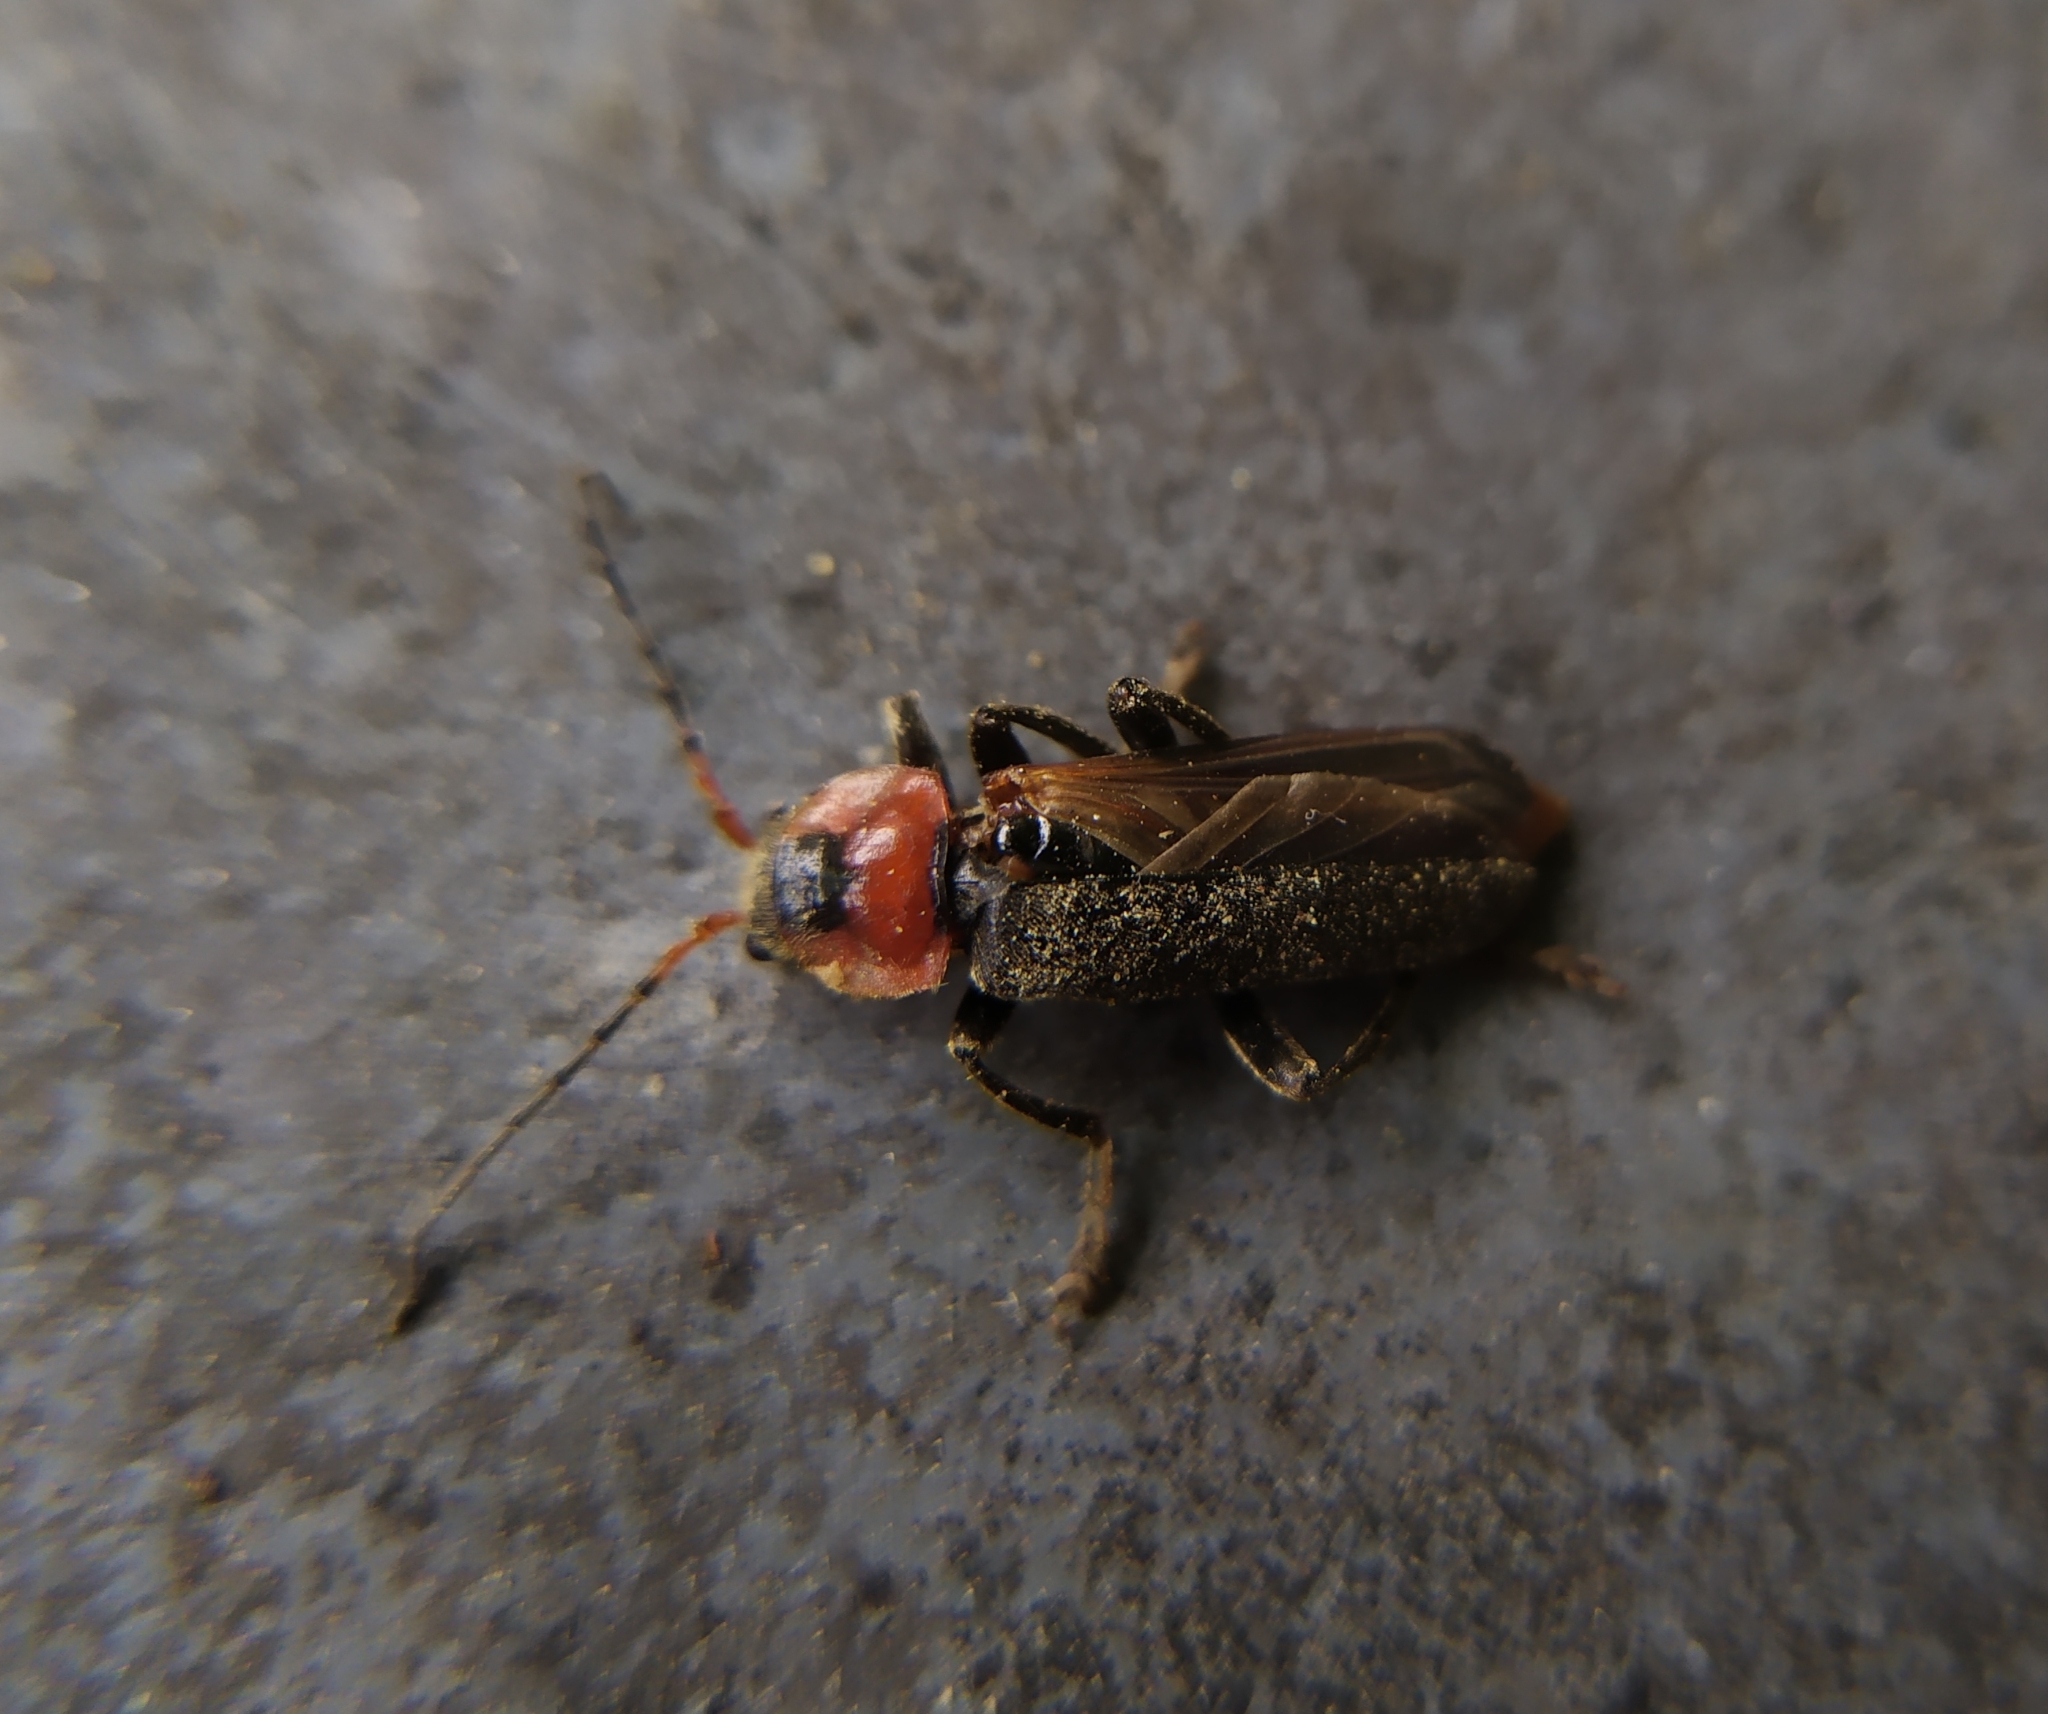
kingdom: Animalia
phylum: Arthropoda
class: Insecta
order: Coleoptera
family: Cantharidae
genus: Cantharis
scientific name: Cantharis fusca
